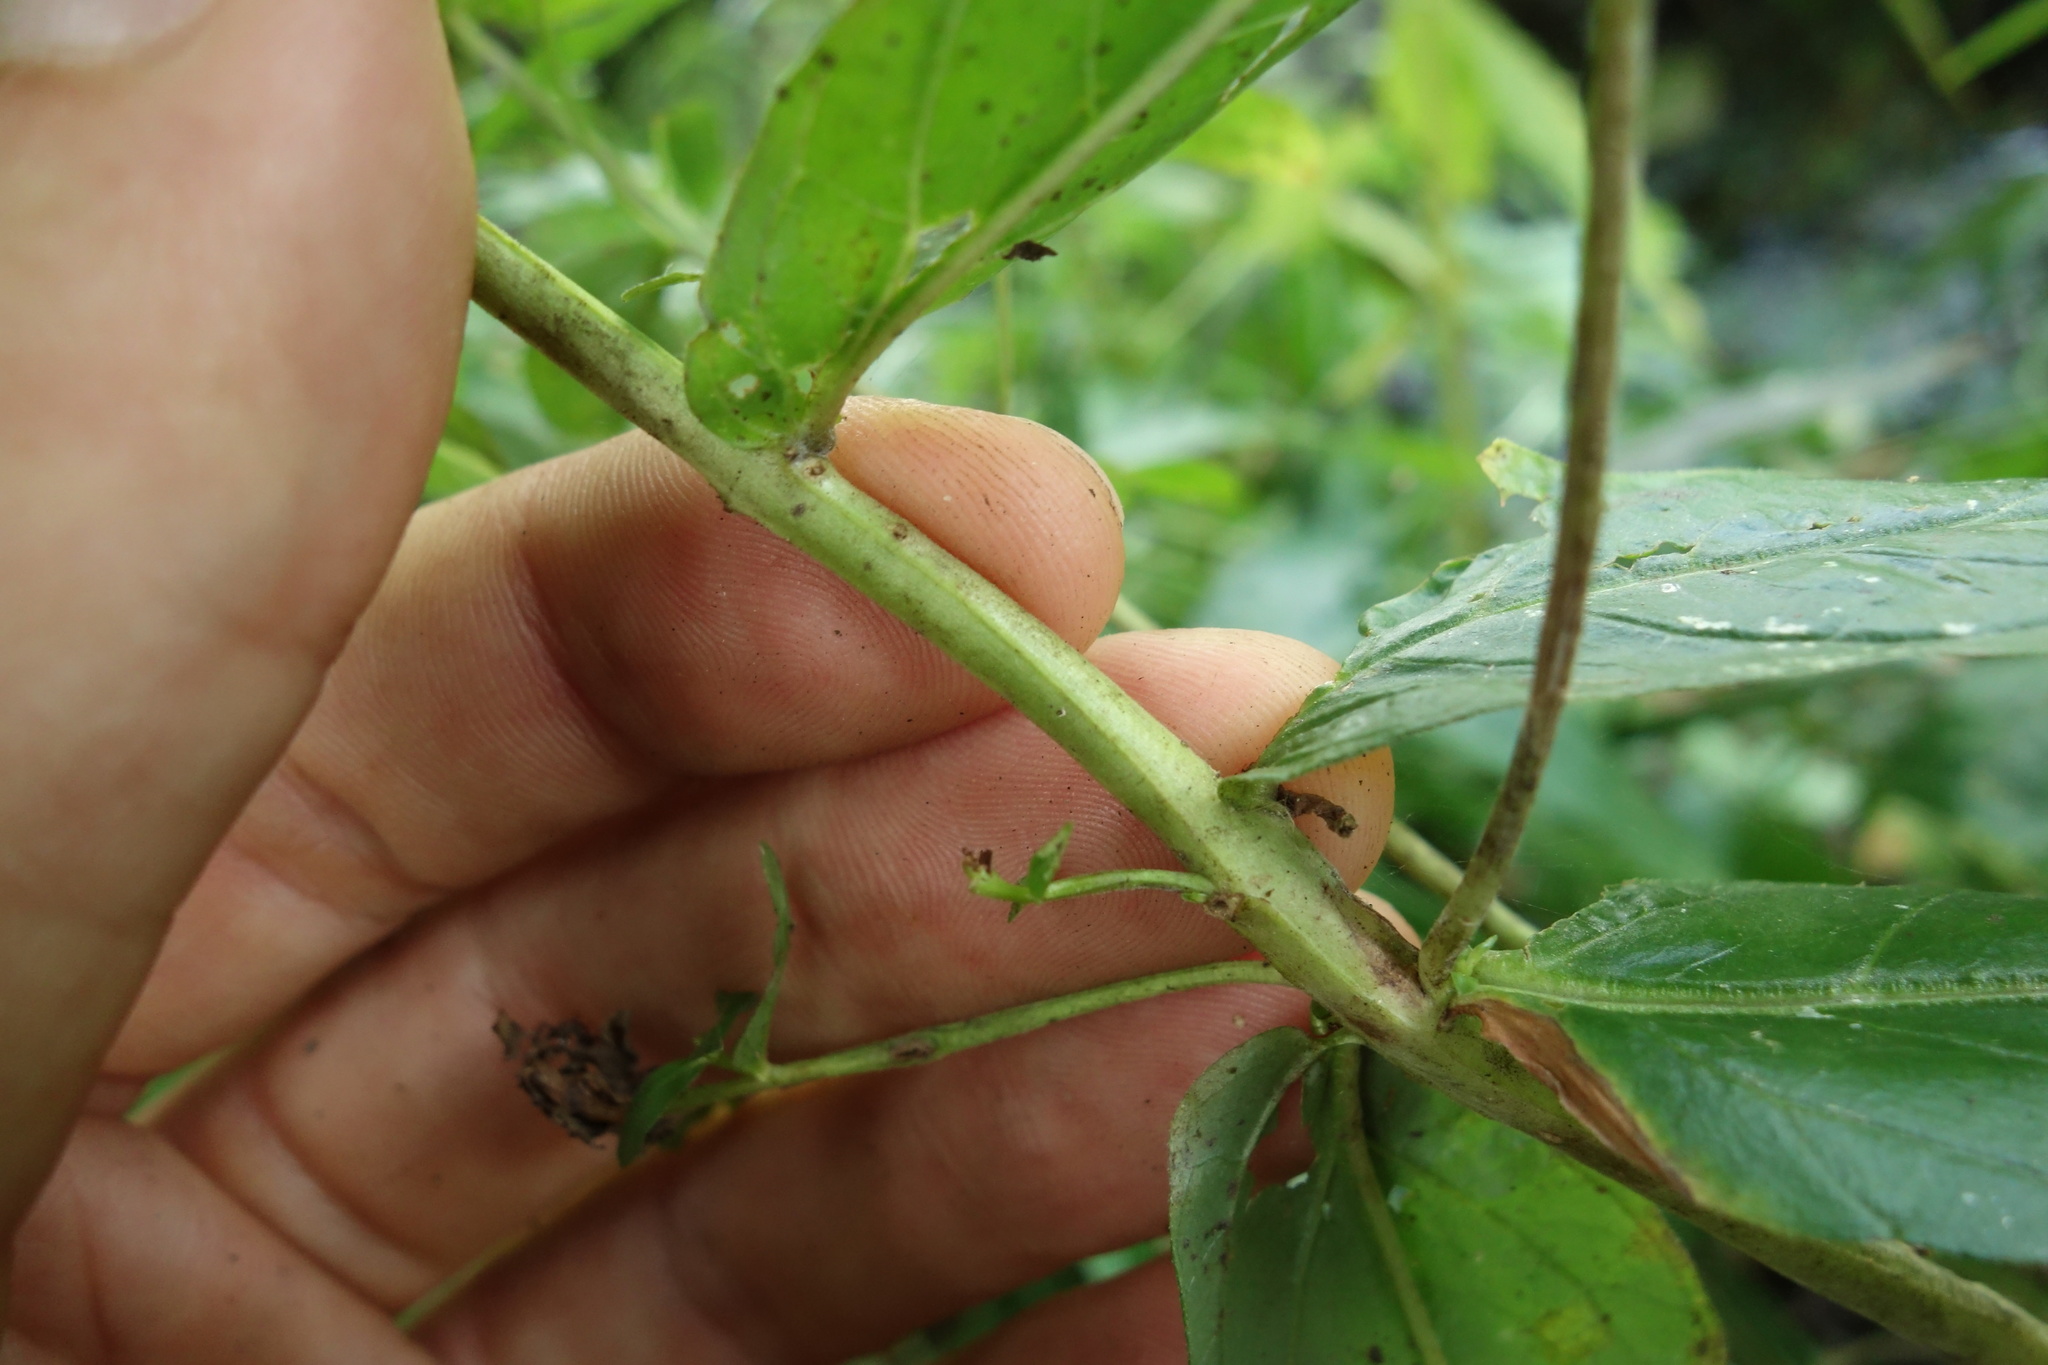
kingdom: Plantae
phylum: Tracheophyta
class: Magnoliopsida
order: Myrtales
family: Lythraceae
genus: Lythrum
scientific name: Lythrum salicaria
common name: Purple loosestrife
